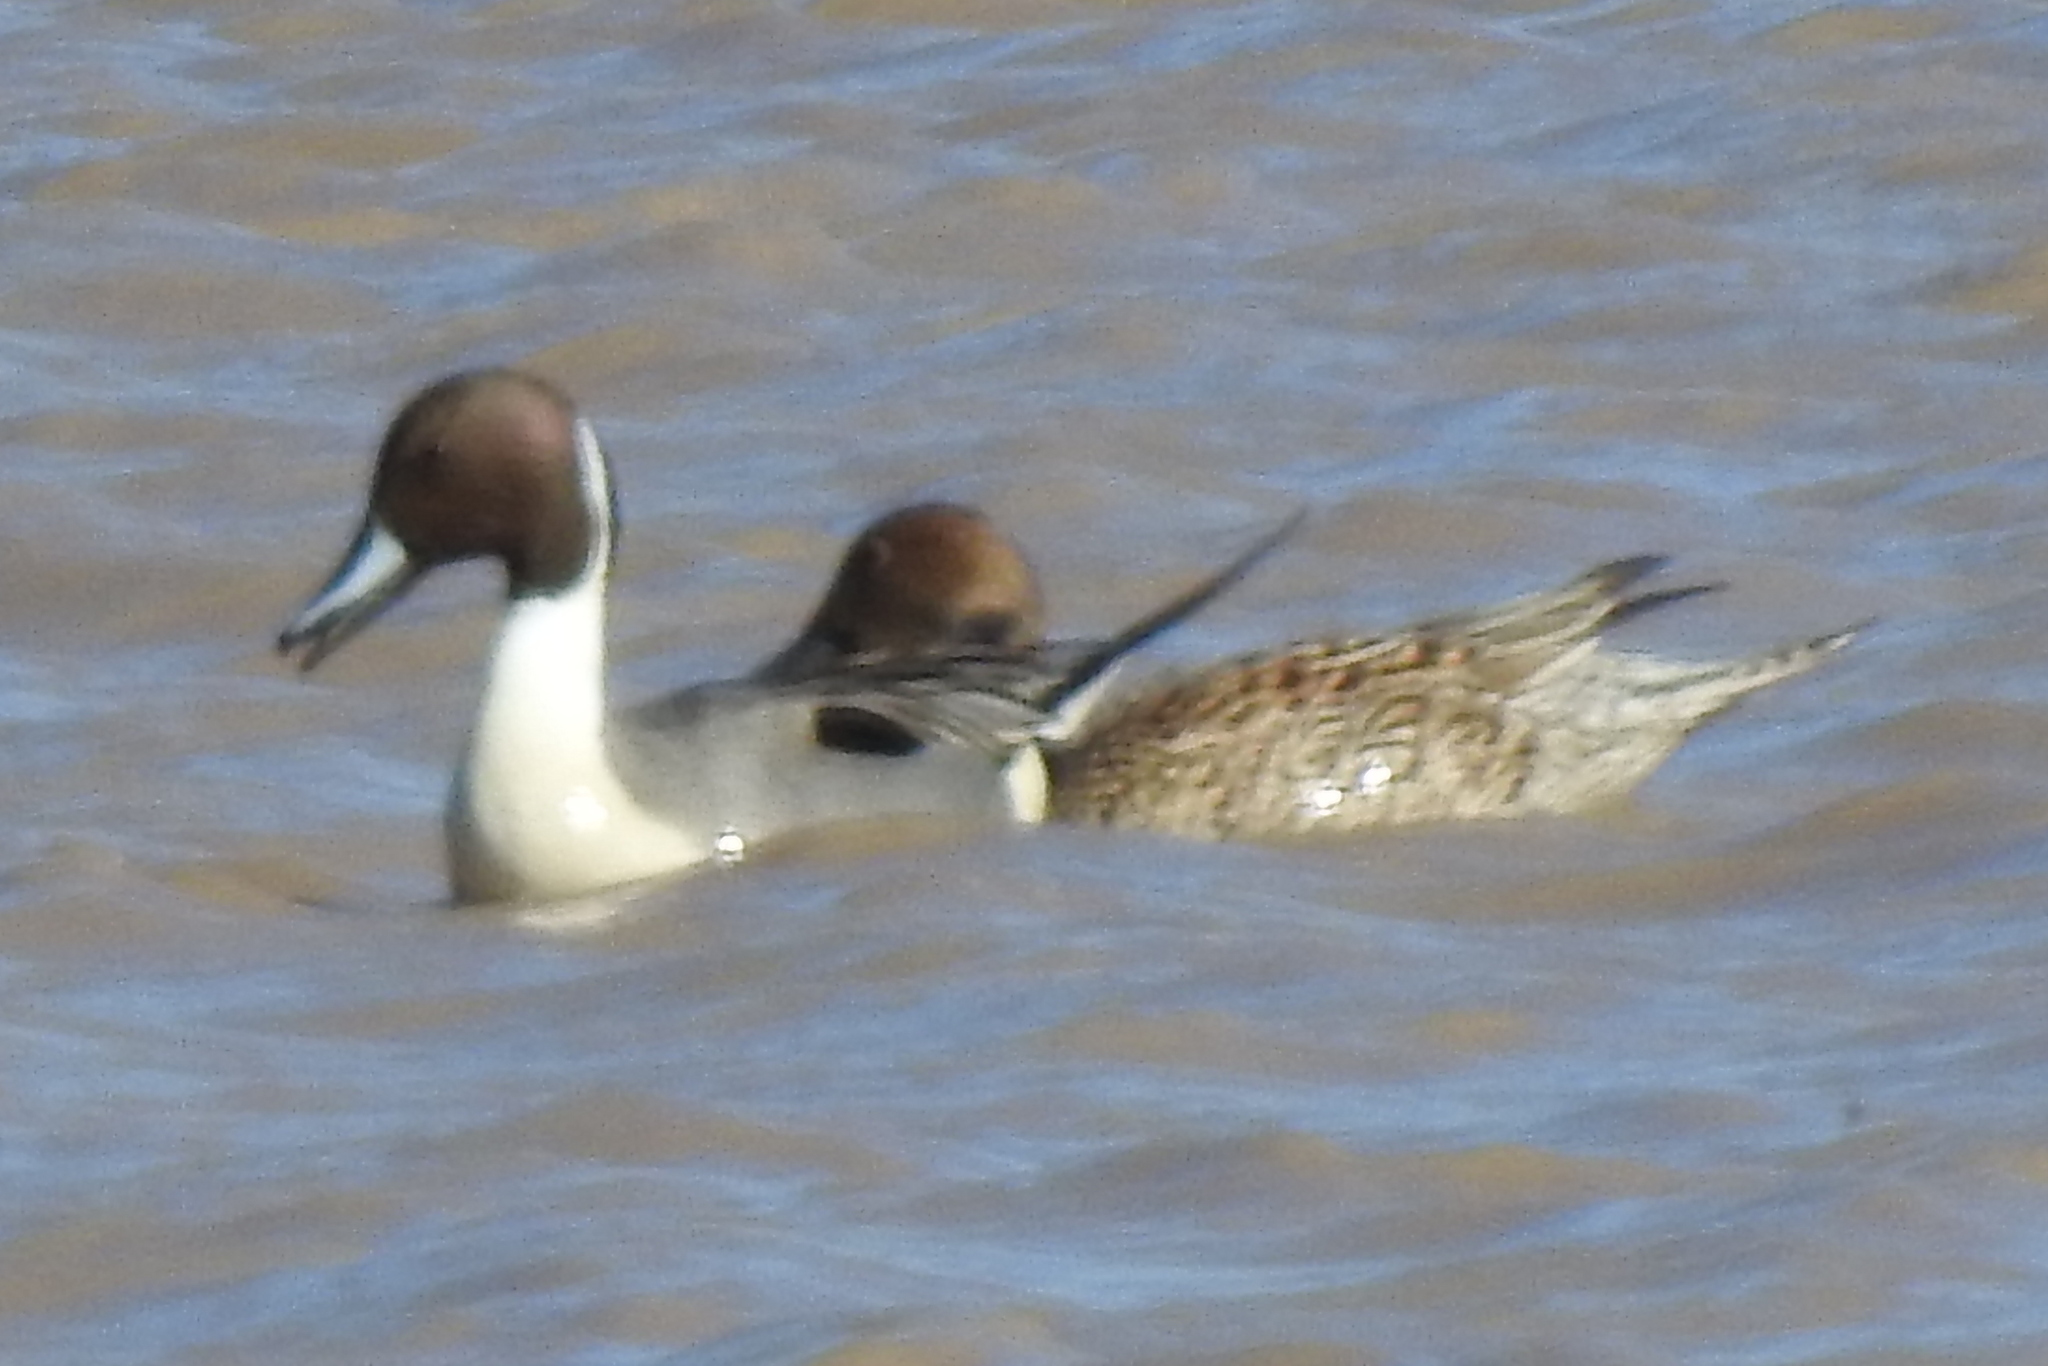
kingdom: Animalia
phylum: Chordata
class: Aves
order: Anseriformes
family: Anatidae
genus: Anas
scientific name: Anas acuta
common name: Northern pintail
